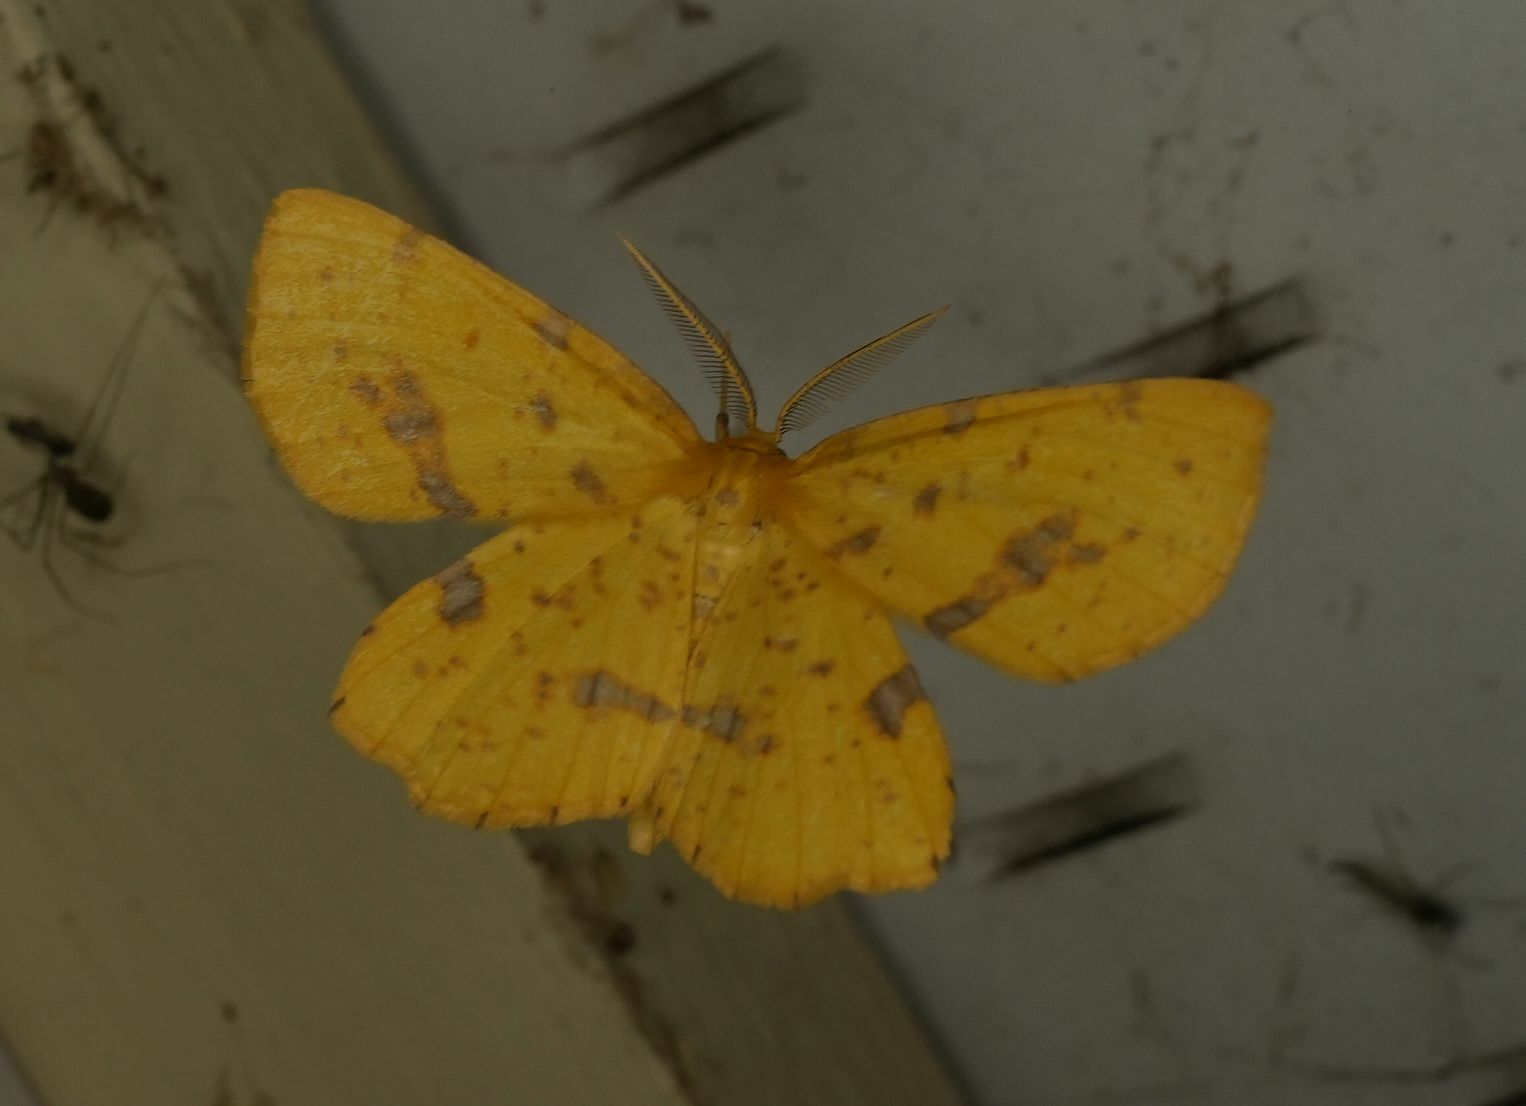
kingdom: Animalia
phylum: Arthropoda
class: Insecta
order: Lepidoptera
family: Geometridae
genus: Xanthotype
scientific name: Xanthotype
